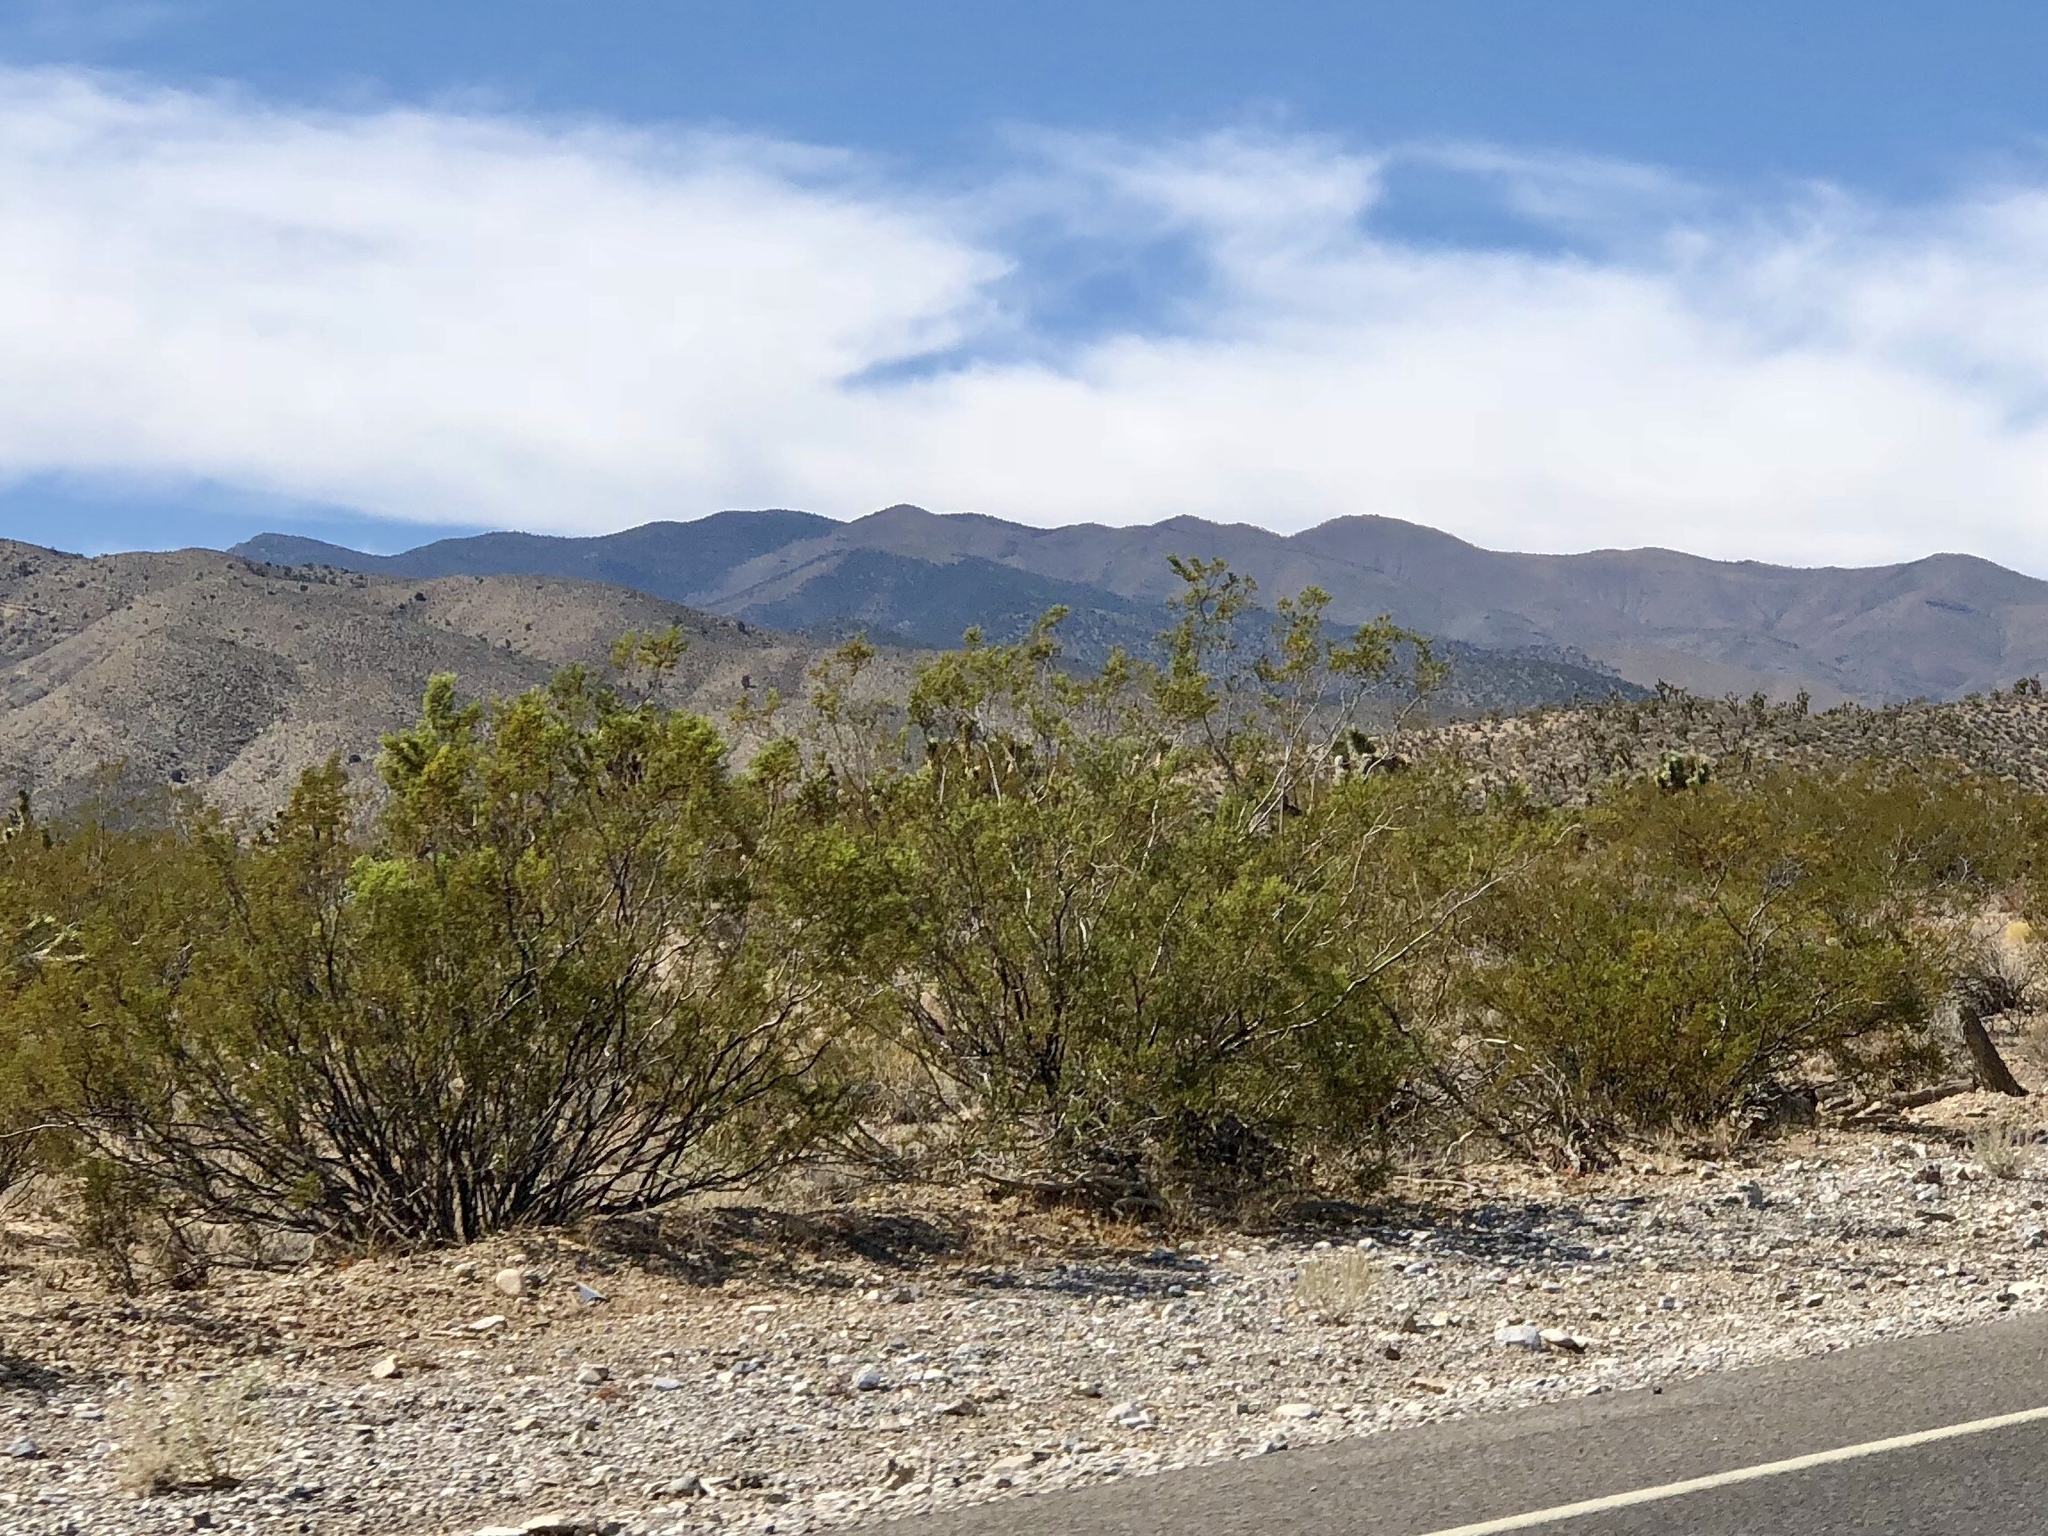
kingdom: Plantae
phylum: Tracheophyta
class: Magnoliopsida
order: Zygophyllales
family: Zygophyllaceae
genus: Larrea
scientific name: Larrea tridentata
